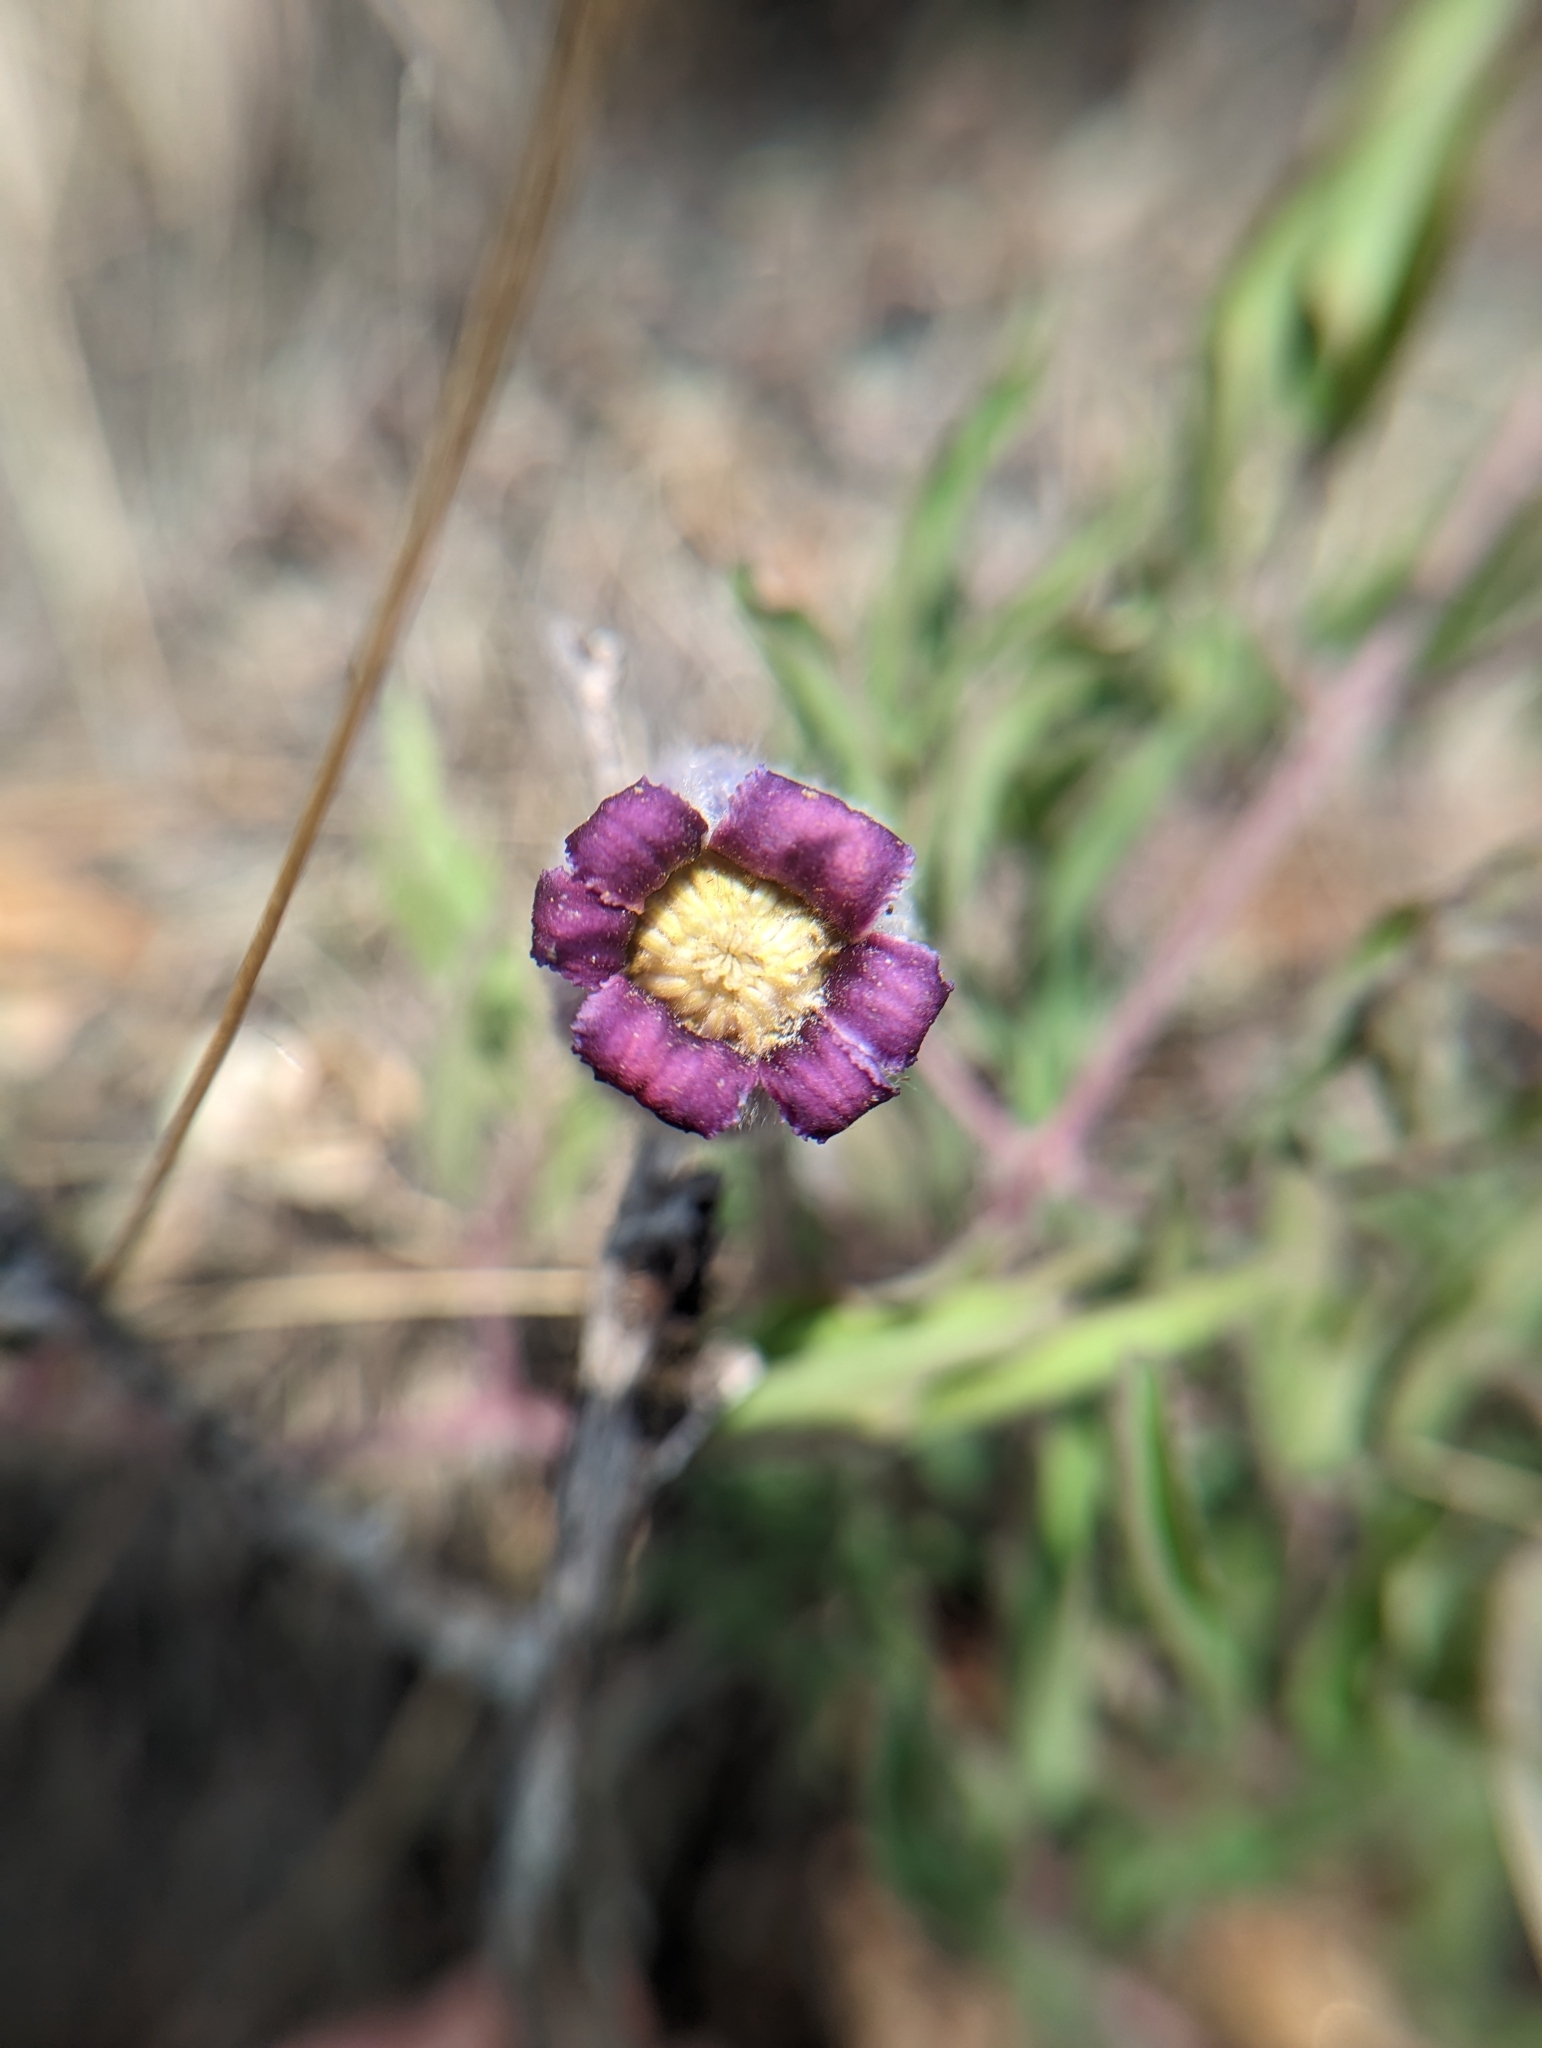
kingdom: Plantae
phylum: Tracheophyta
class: Magnoliopsida
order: Ranunculales
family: Ranunculaceae
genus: Clematis
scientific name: Clematis hirsutissima
